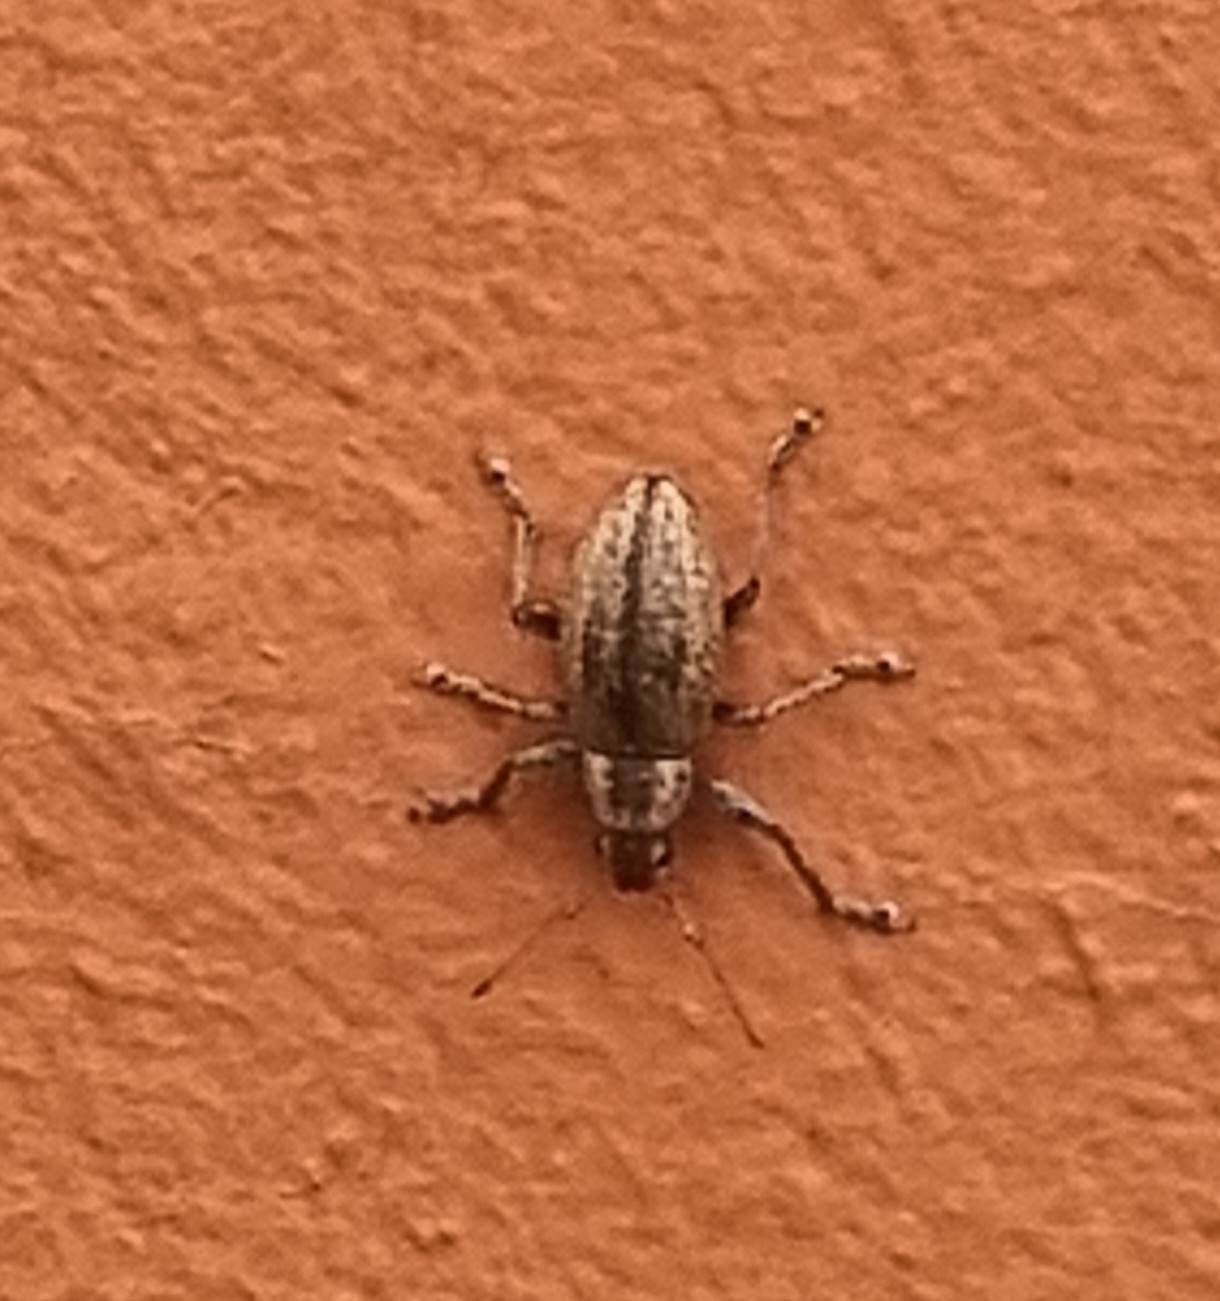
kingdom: Animalia
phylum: Arthropoda
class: Insecta
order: Coleoptera
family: Curculionidae
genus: Naupactus
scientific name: Naupactus versatilis
